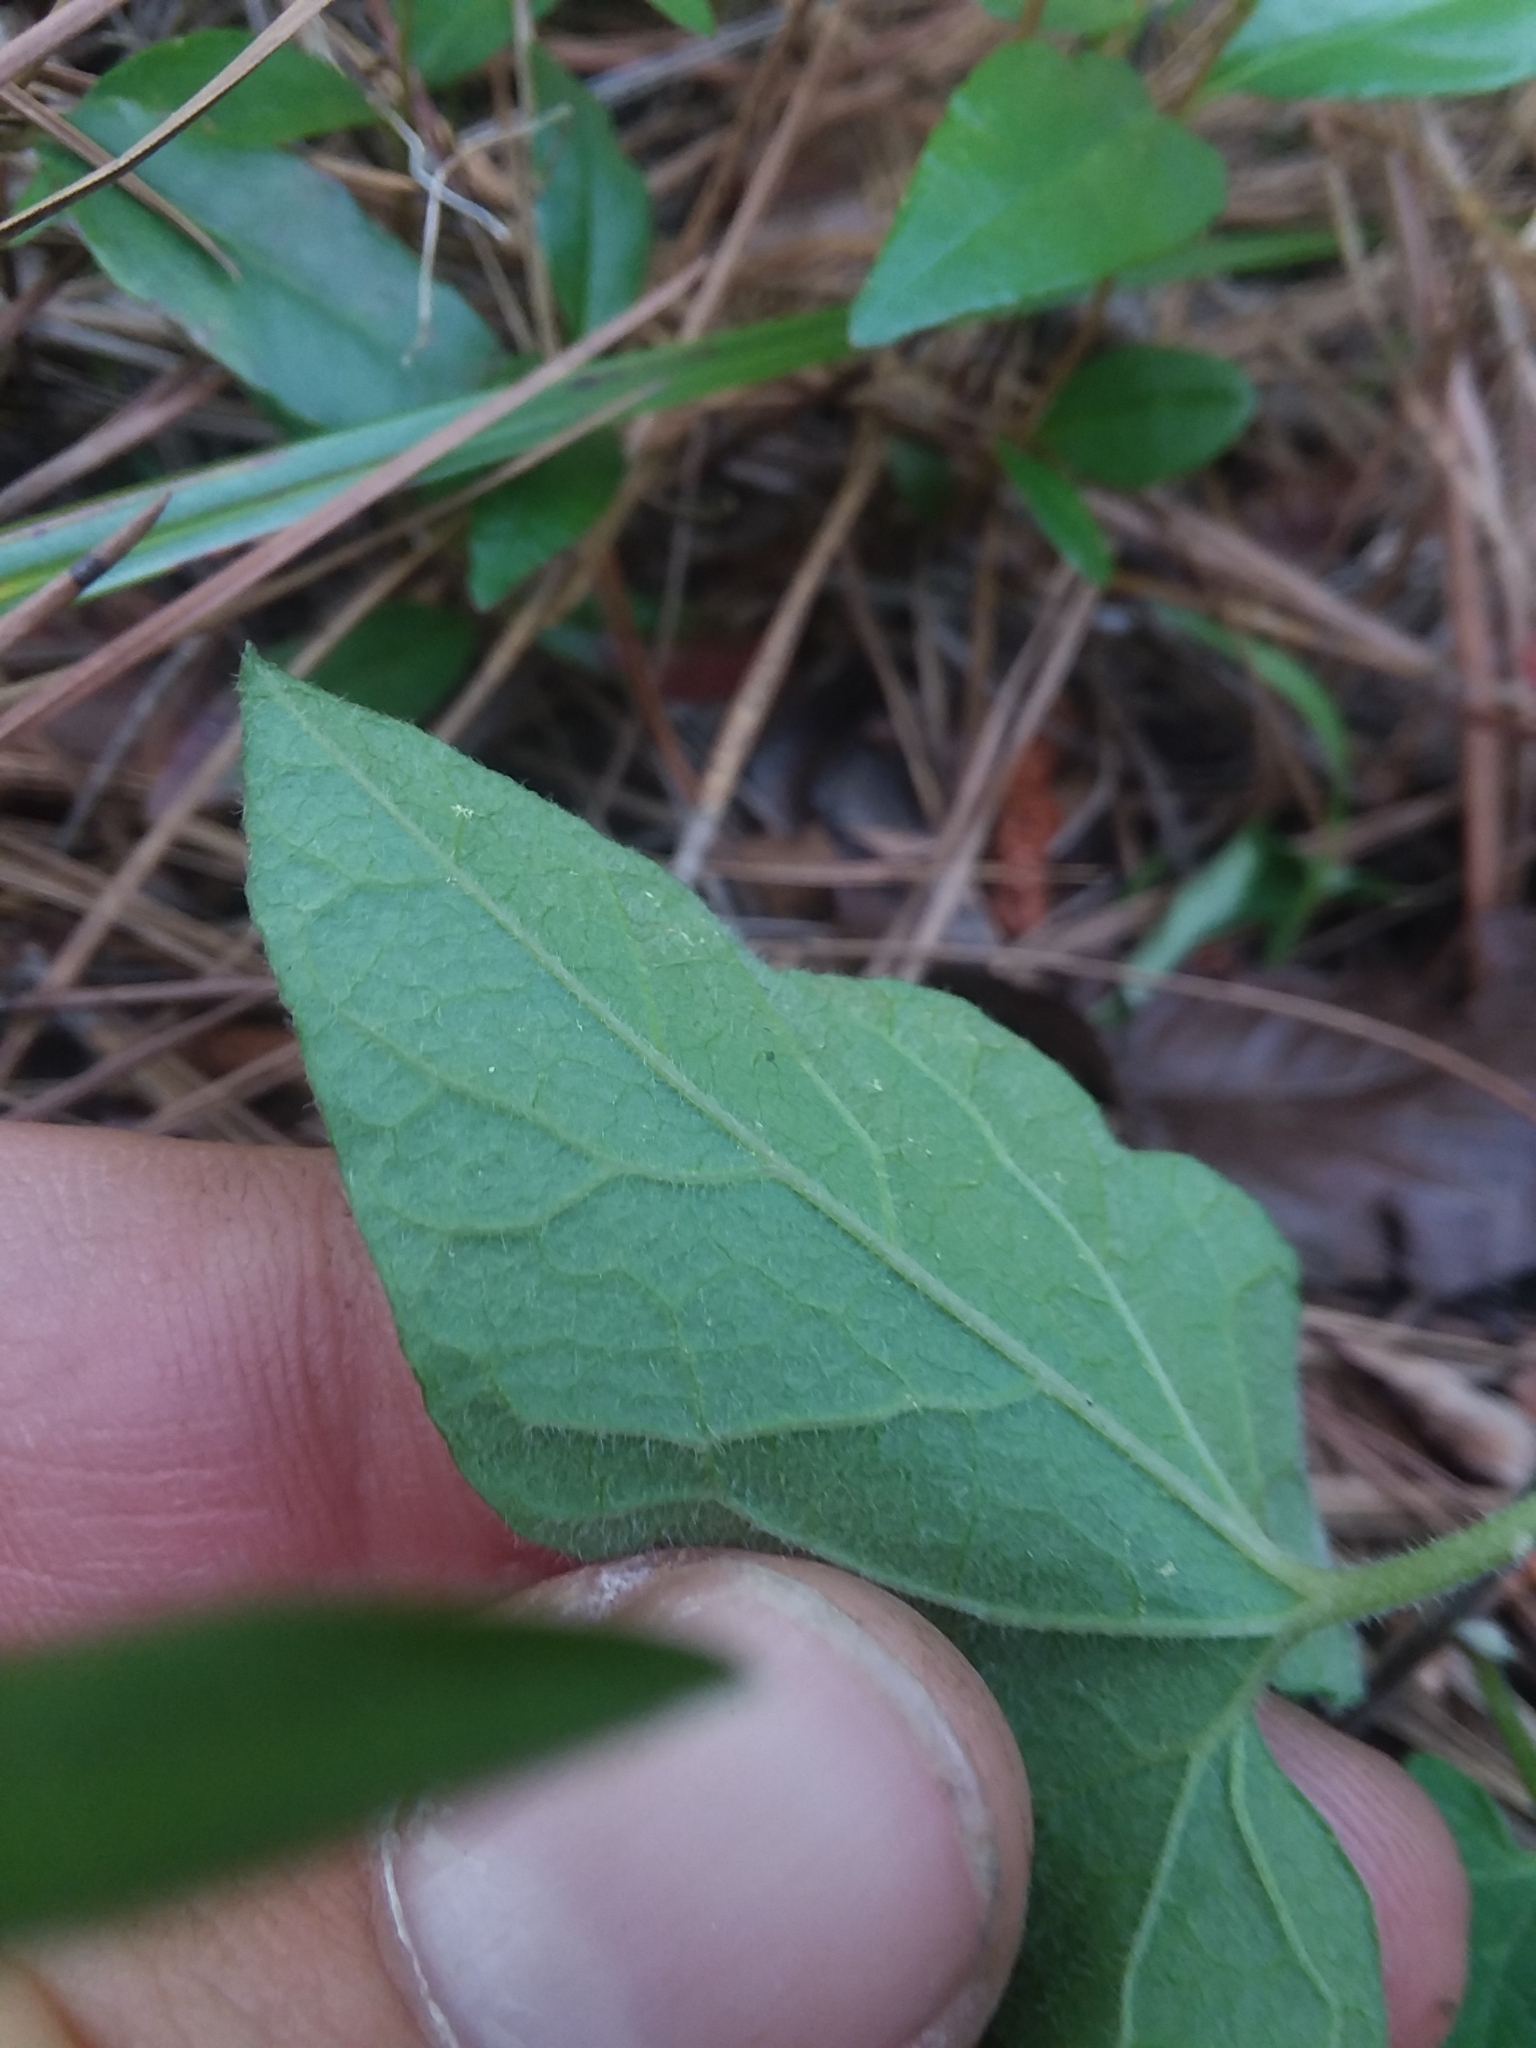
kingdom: Plantae
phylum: Tracheophyta
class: Magnoliopsida
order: Solanales
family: Convolvulaceae
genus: Calystegia
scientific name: Calystegia sepium
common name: Hedge bindweed
